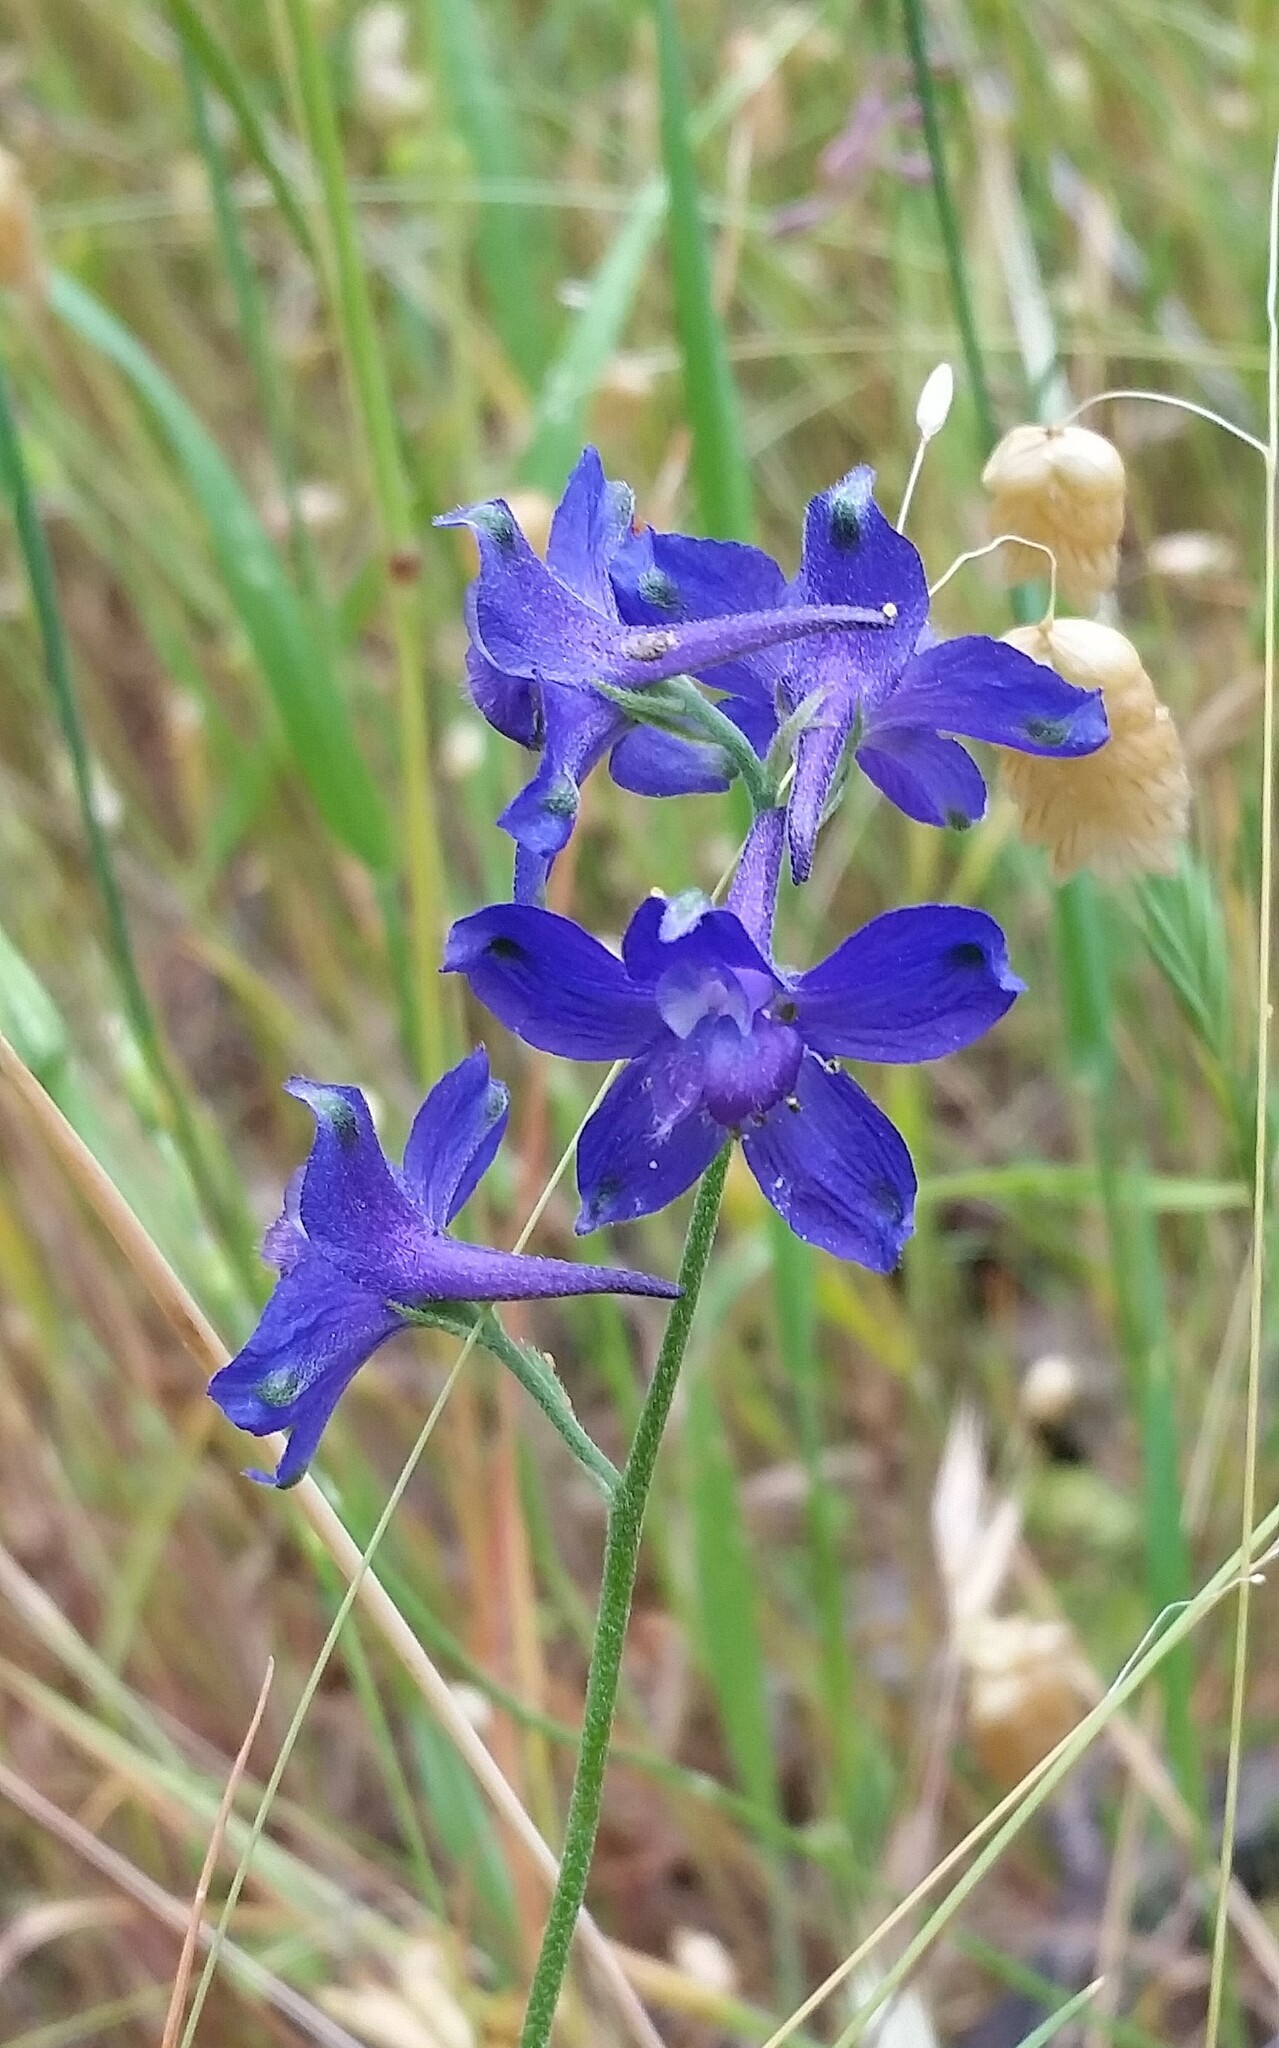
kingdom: Plantae
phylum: Tracheophyta
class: Magnoliopsida
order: Ranunculales
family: Ranunculaceae
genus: Delphinium
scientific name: Delphinium variegatum
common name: Royal larkspur
